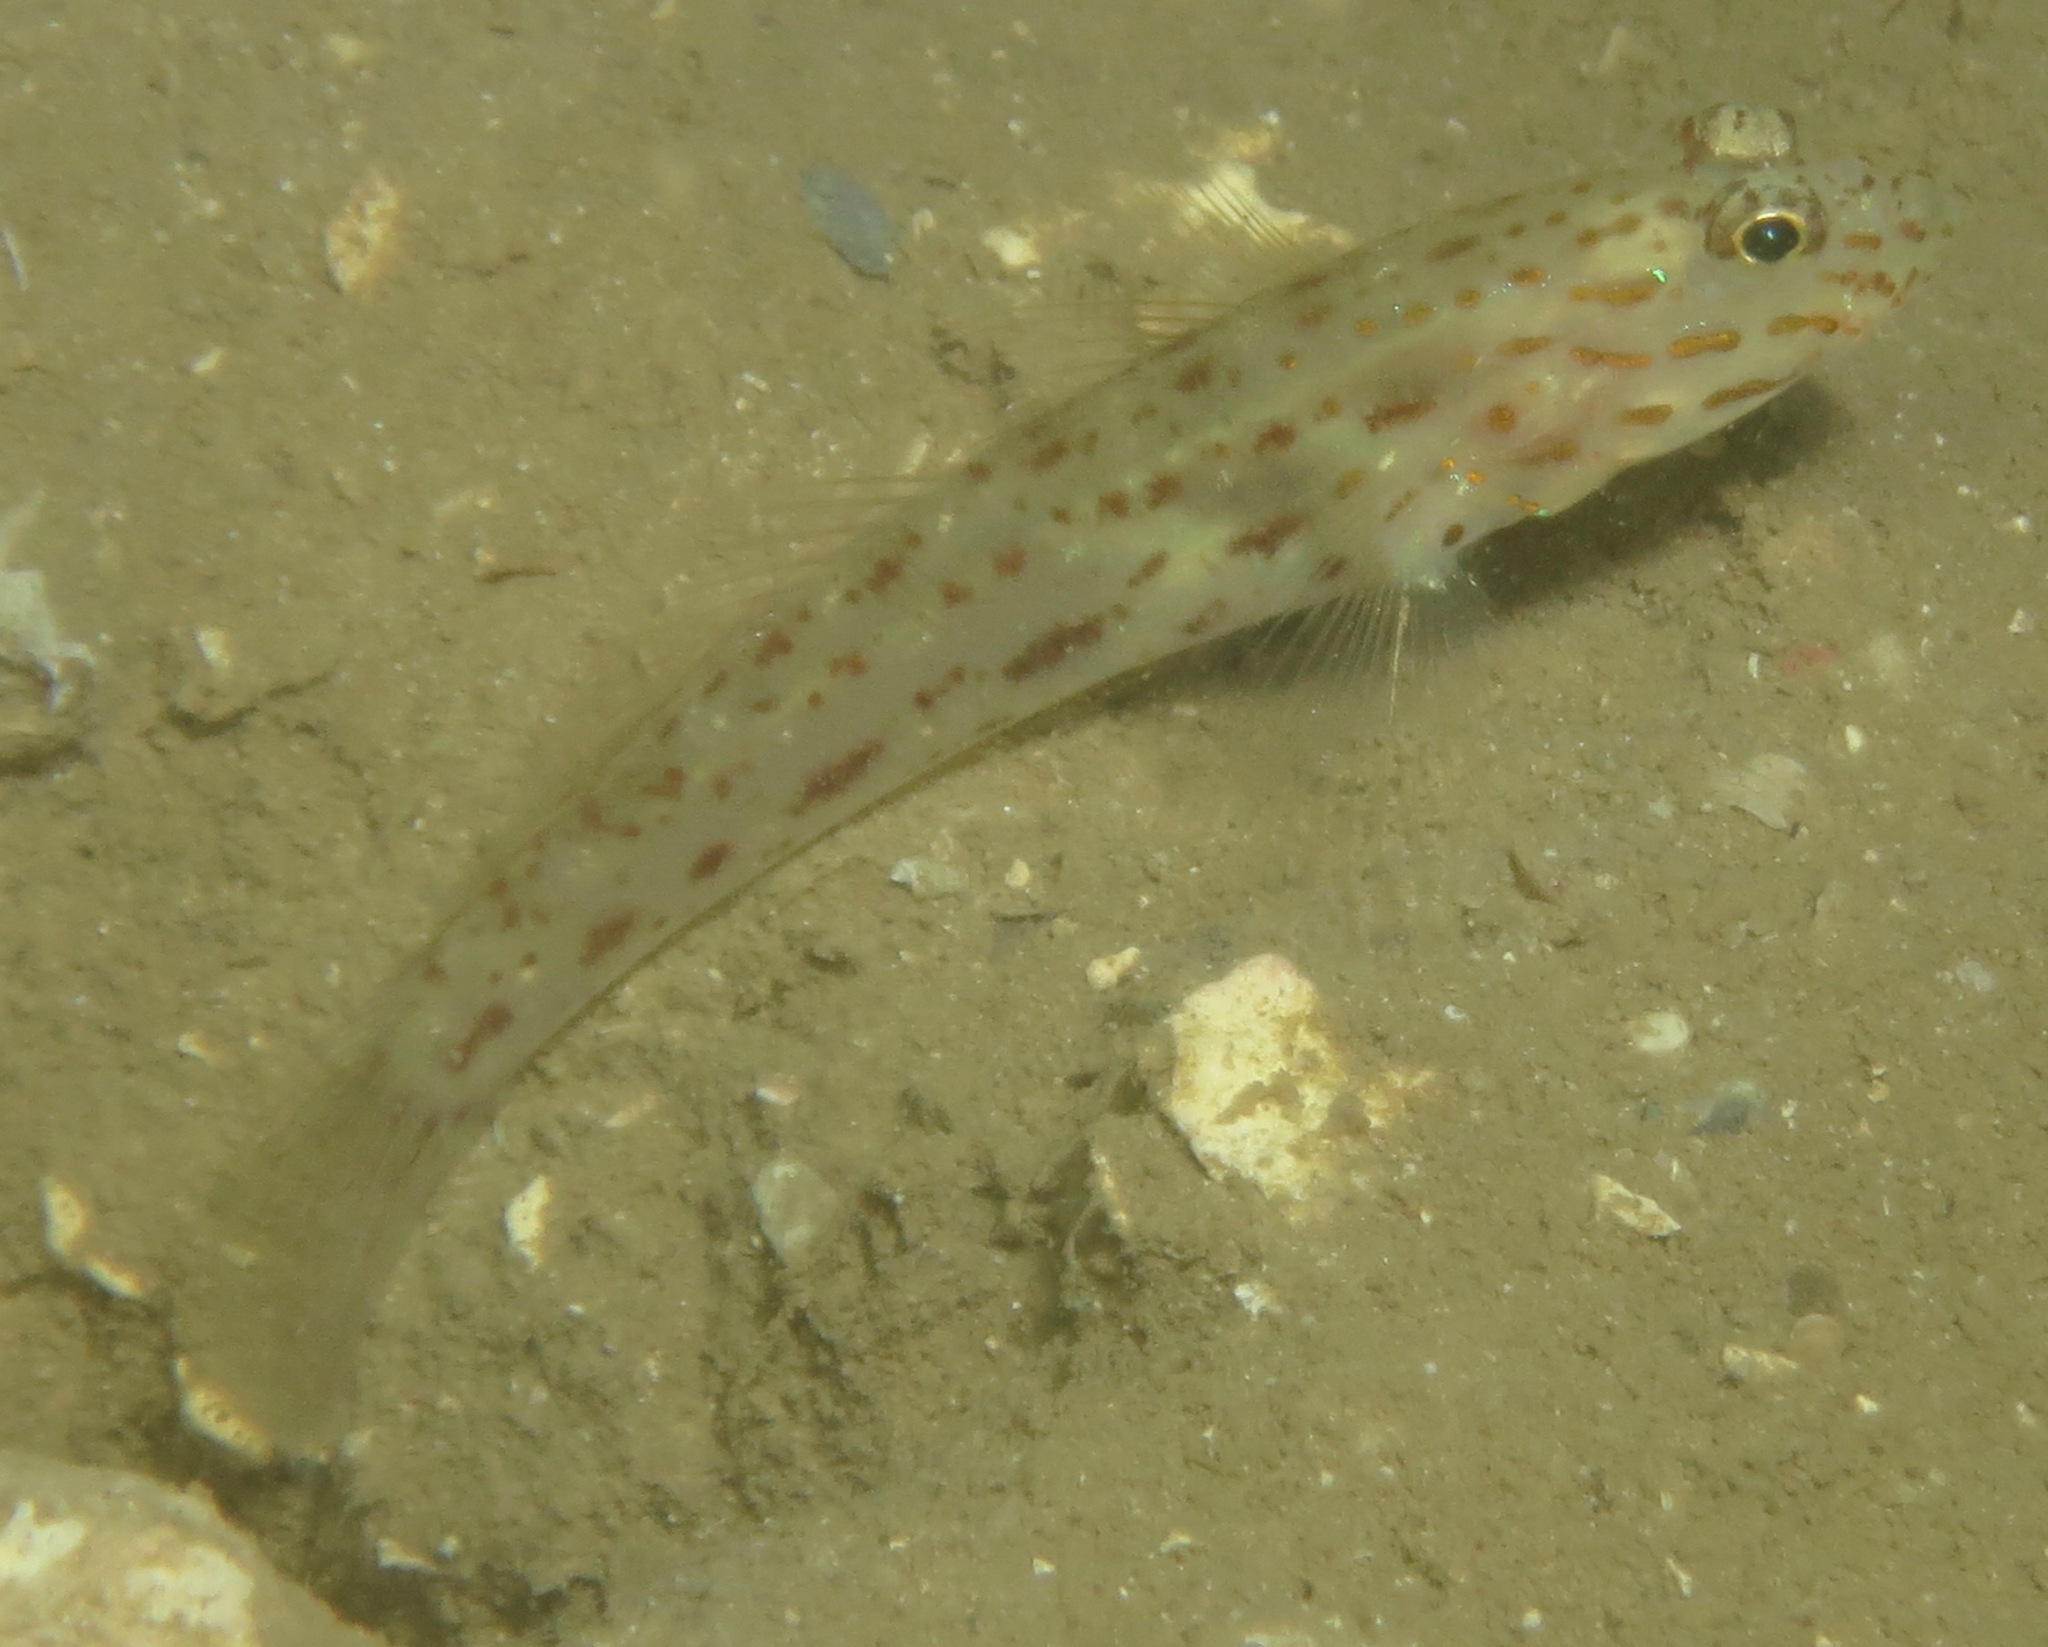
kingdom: Animalia
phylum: Chordata
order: Perciformes
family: Gobiidae
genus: Ctenogobiops
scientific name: Ctenogobiops crocineus
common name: Silverspot shrimpgoby
